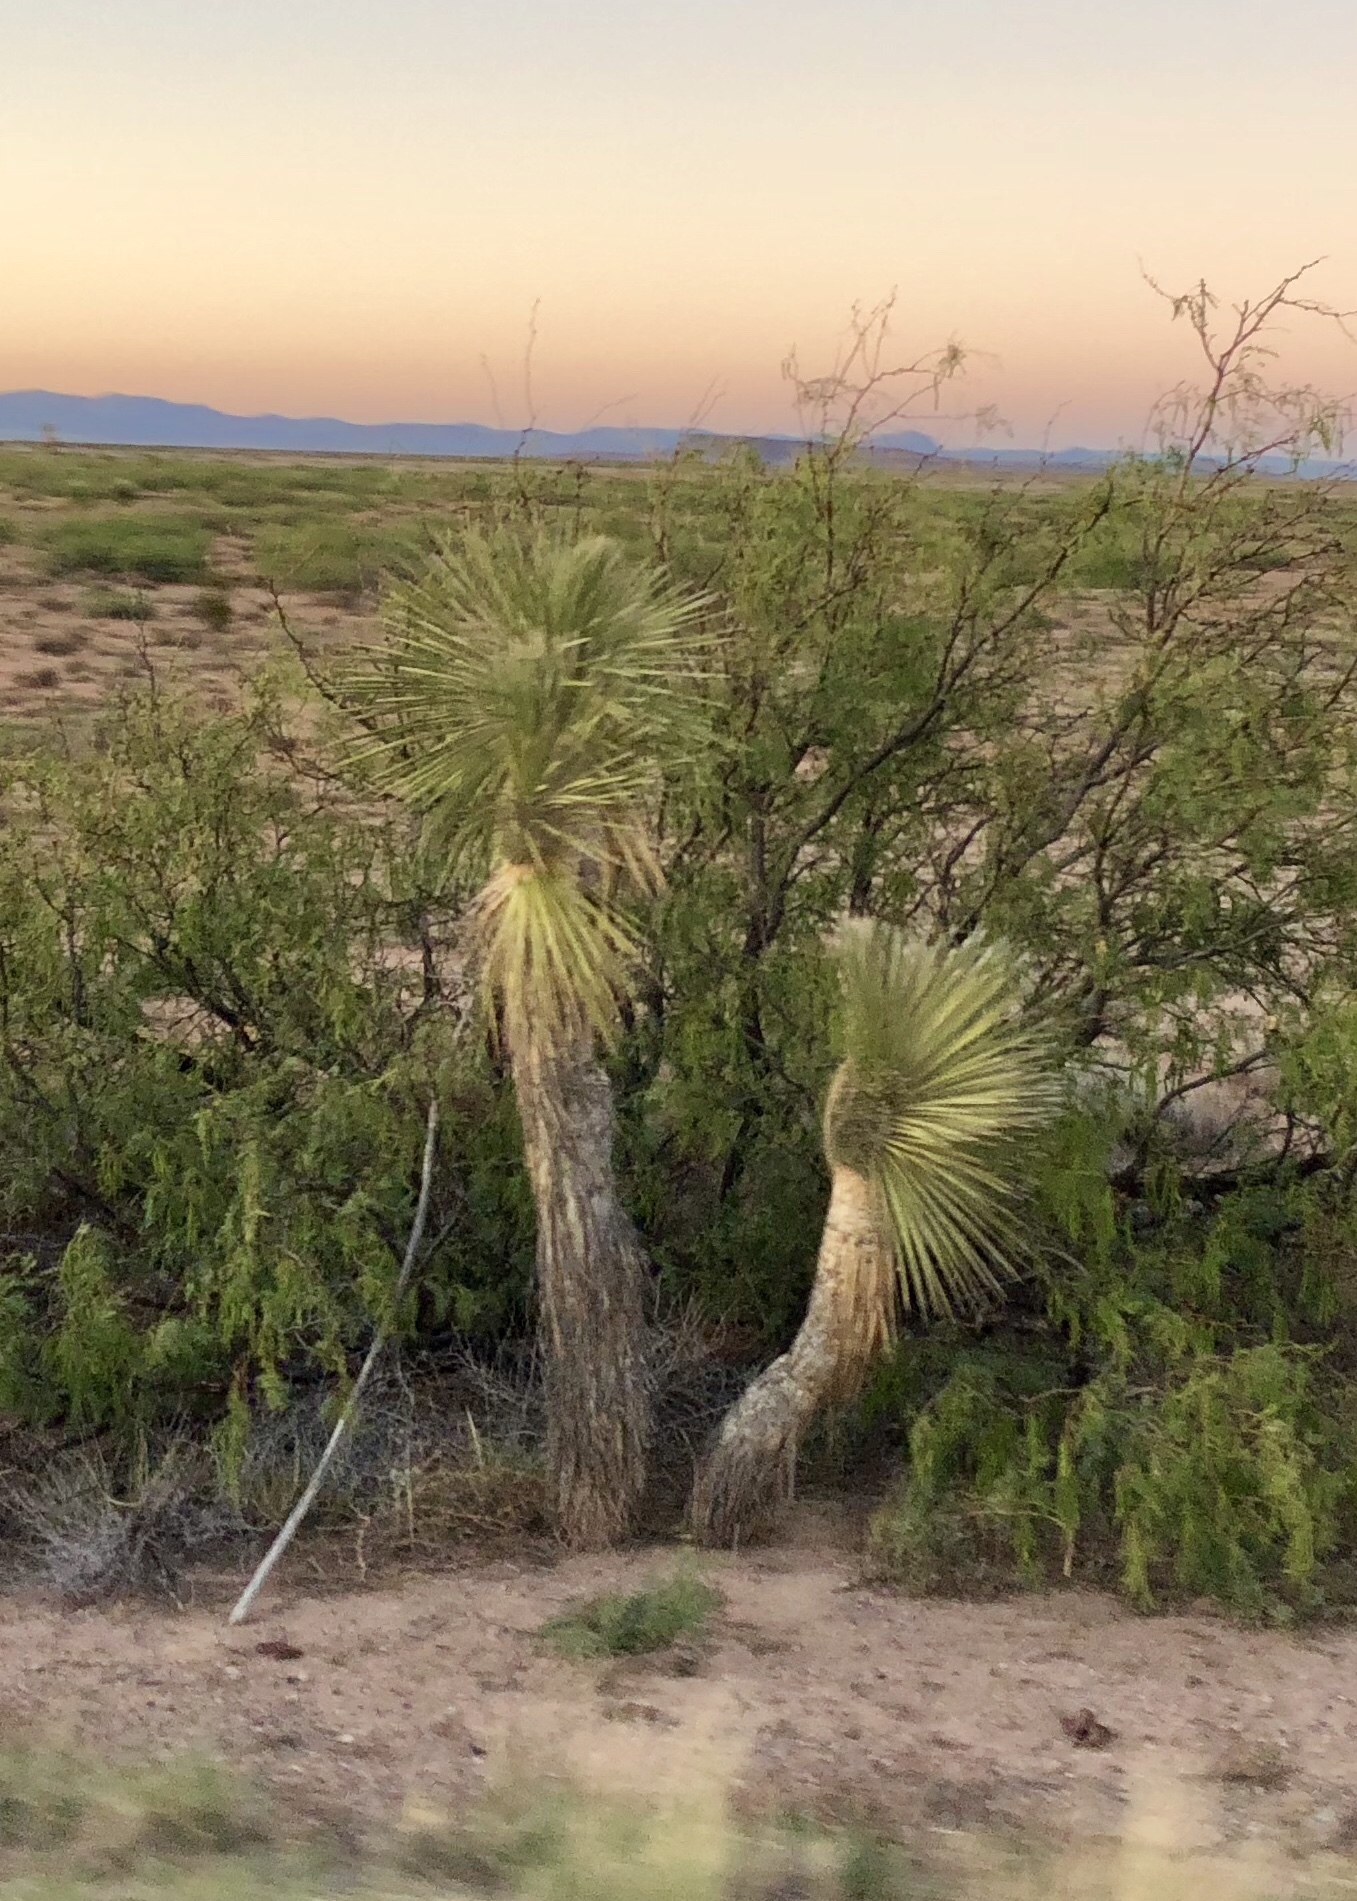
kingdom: Plantae
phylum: Tracheophyta
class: Liliopsida
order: Asparagales
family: Asparagaceae
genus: Yucca
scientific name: Yucca elata
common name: Palmella
